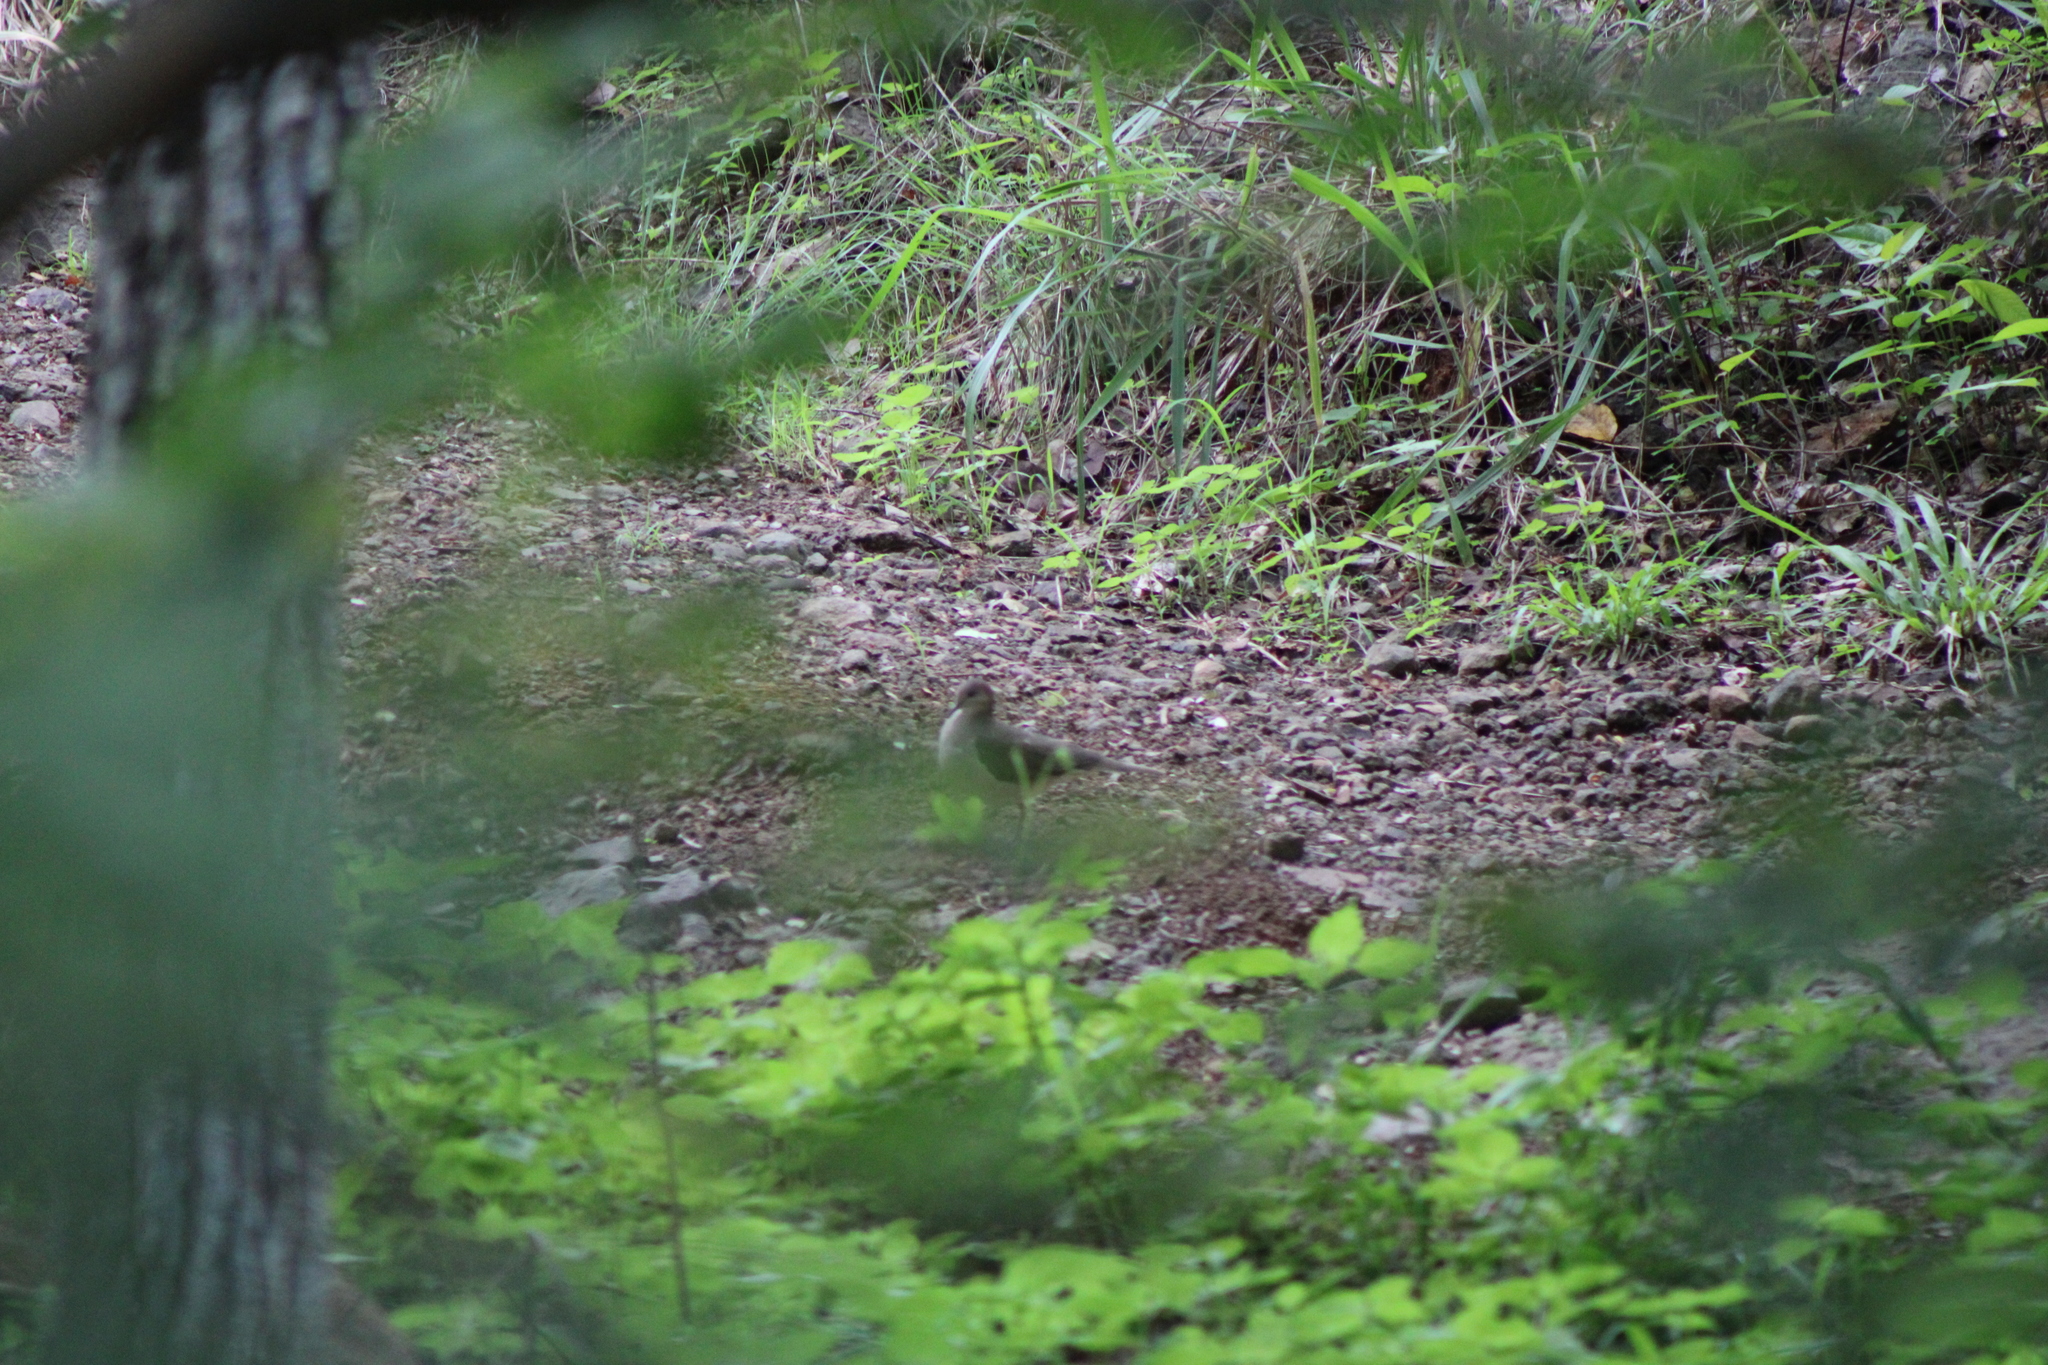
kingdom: Animalia
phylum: Chordata
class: Aves
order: Columbiformes
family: Columbidae
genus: Leptotila
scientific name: Leptotila verreauxi
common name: White-tipped dove
